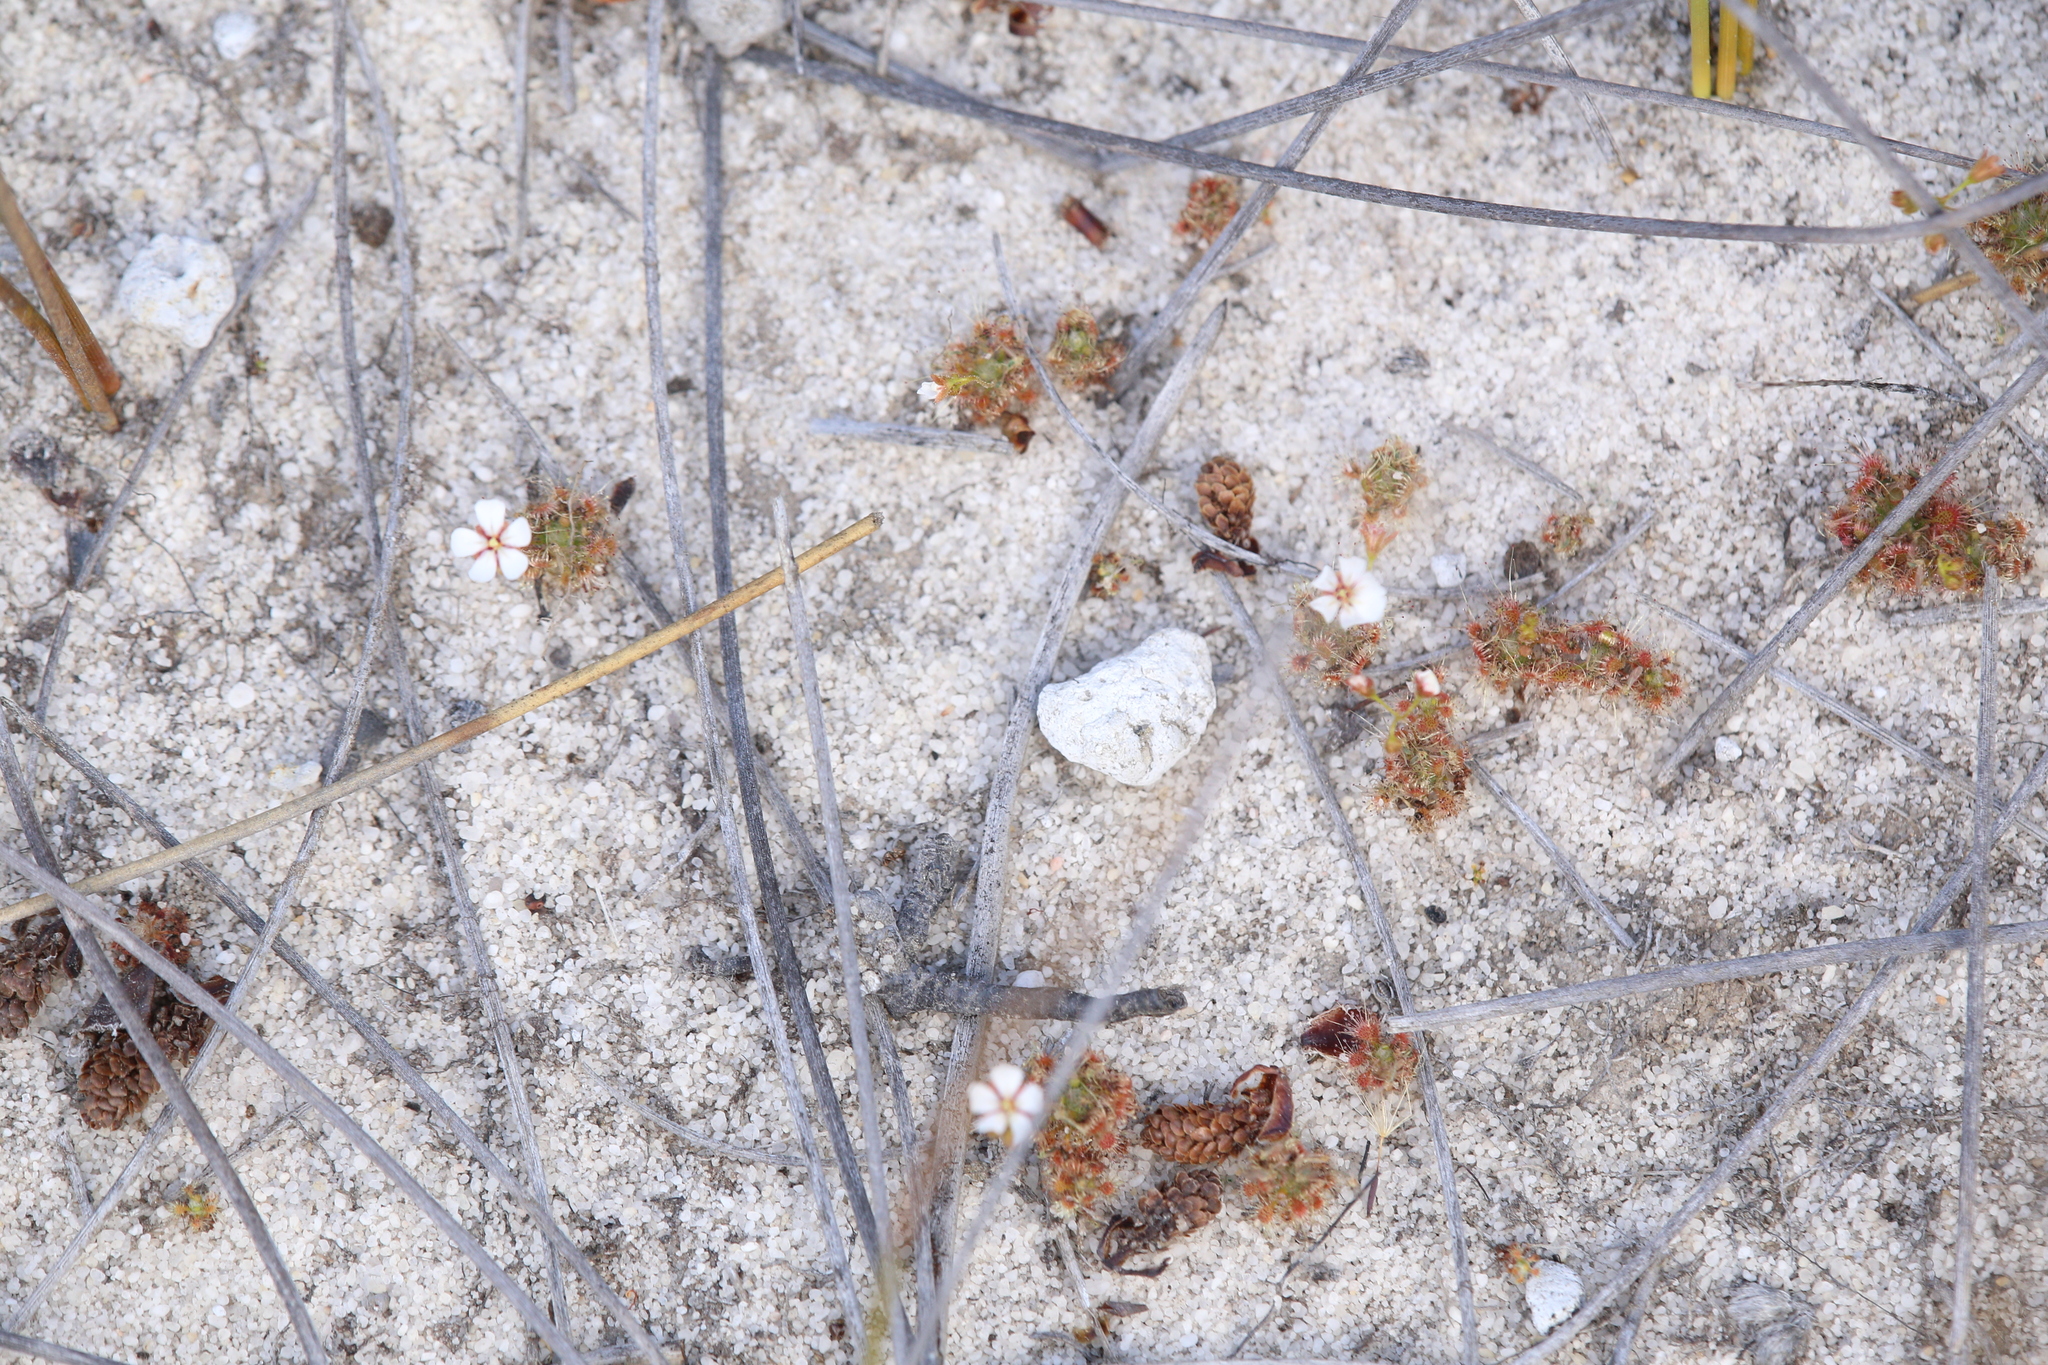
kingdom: Plantae
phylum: Tracheophyta
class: Magnoliopsida
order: Caryophyllales
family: Droseraceae
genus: Drosera
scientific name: Drosera patens
